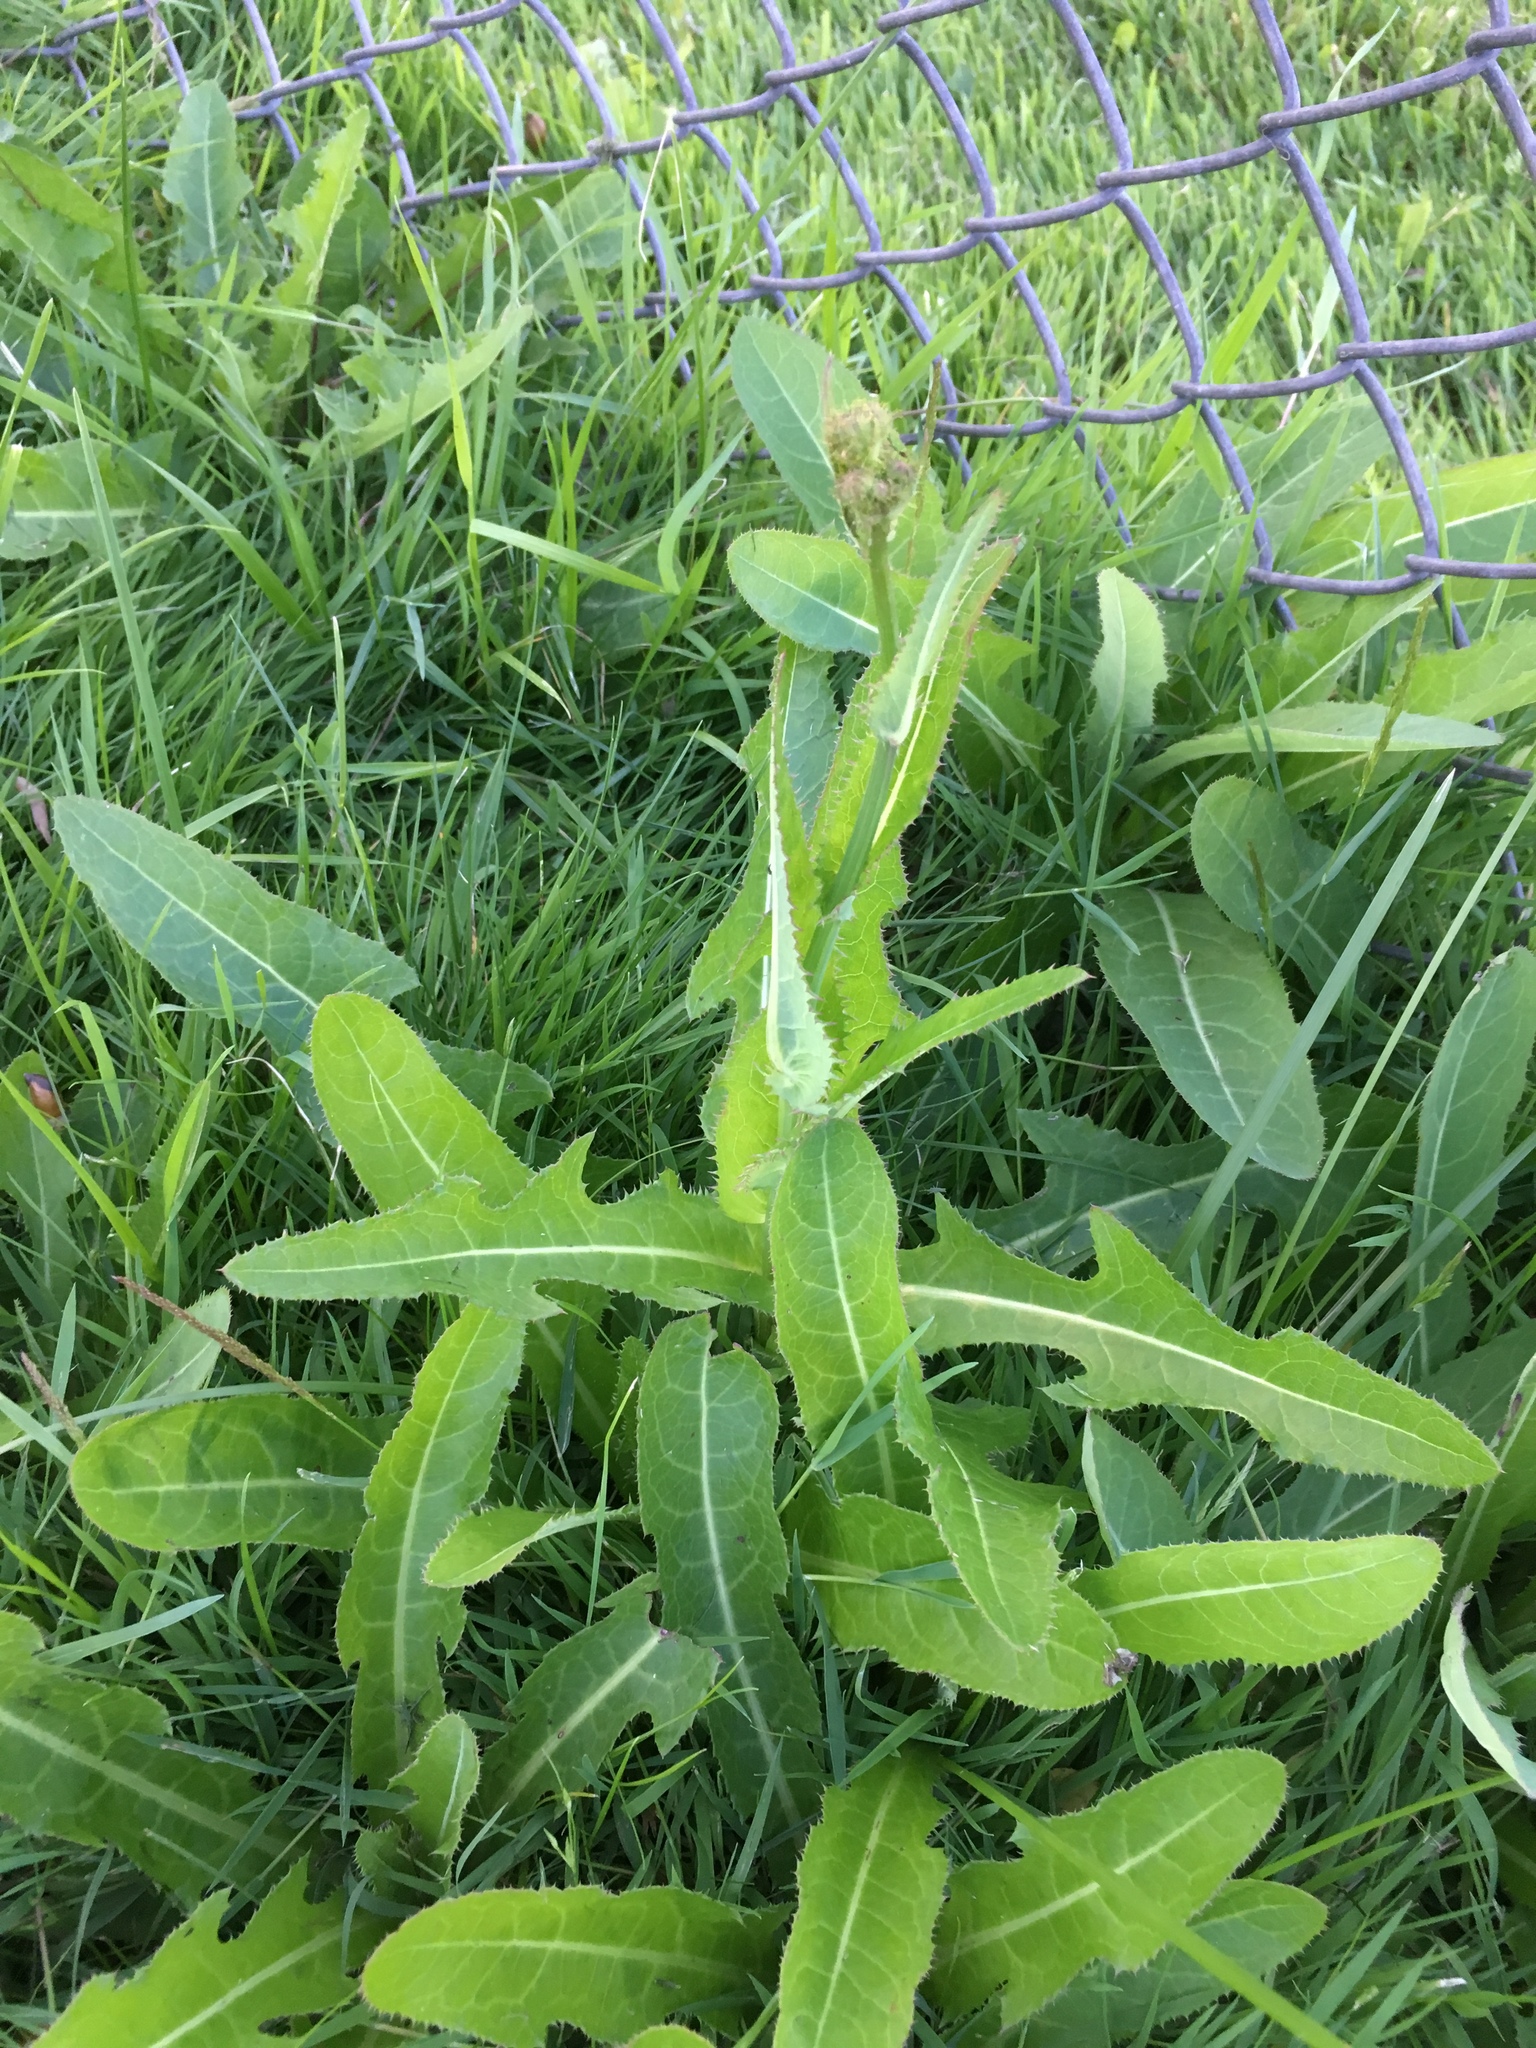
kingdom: Plantae
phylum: Tracheophyta
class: Magnoliopsida
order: Asterales
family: Asteraceae
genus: Sonchus
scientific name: Sonchus arvensis
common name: Perennial sow-thistle
